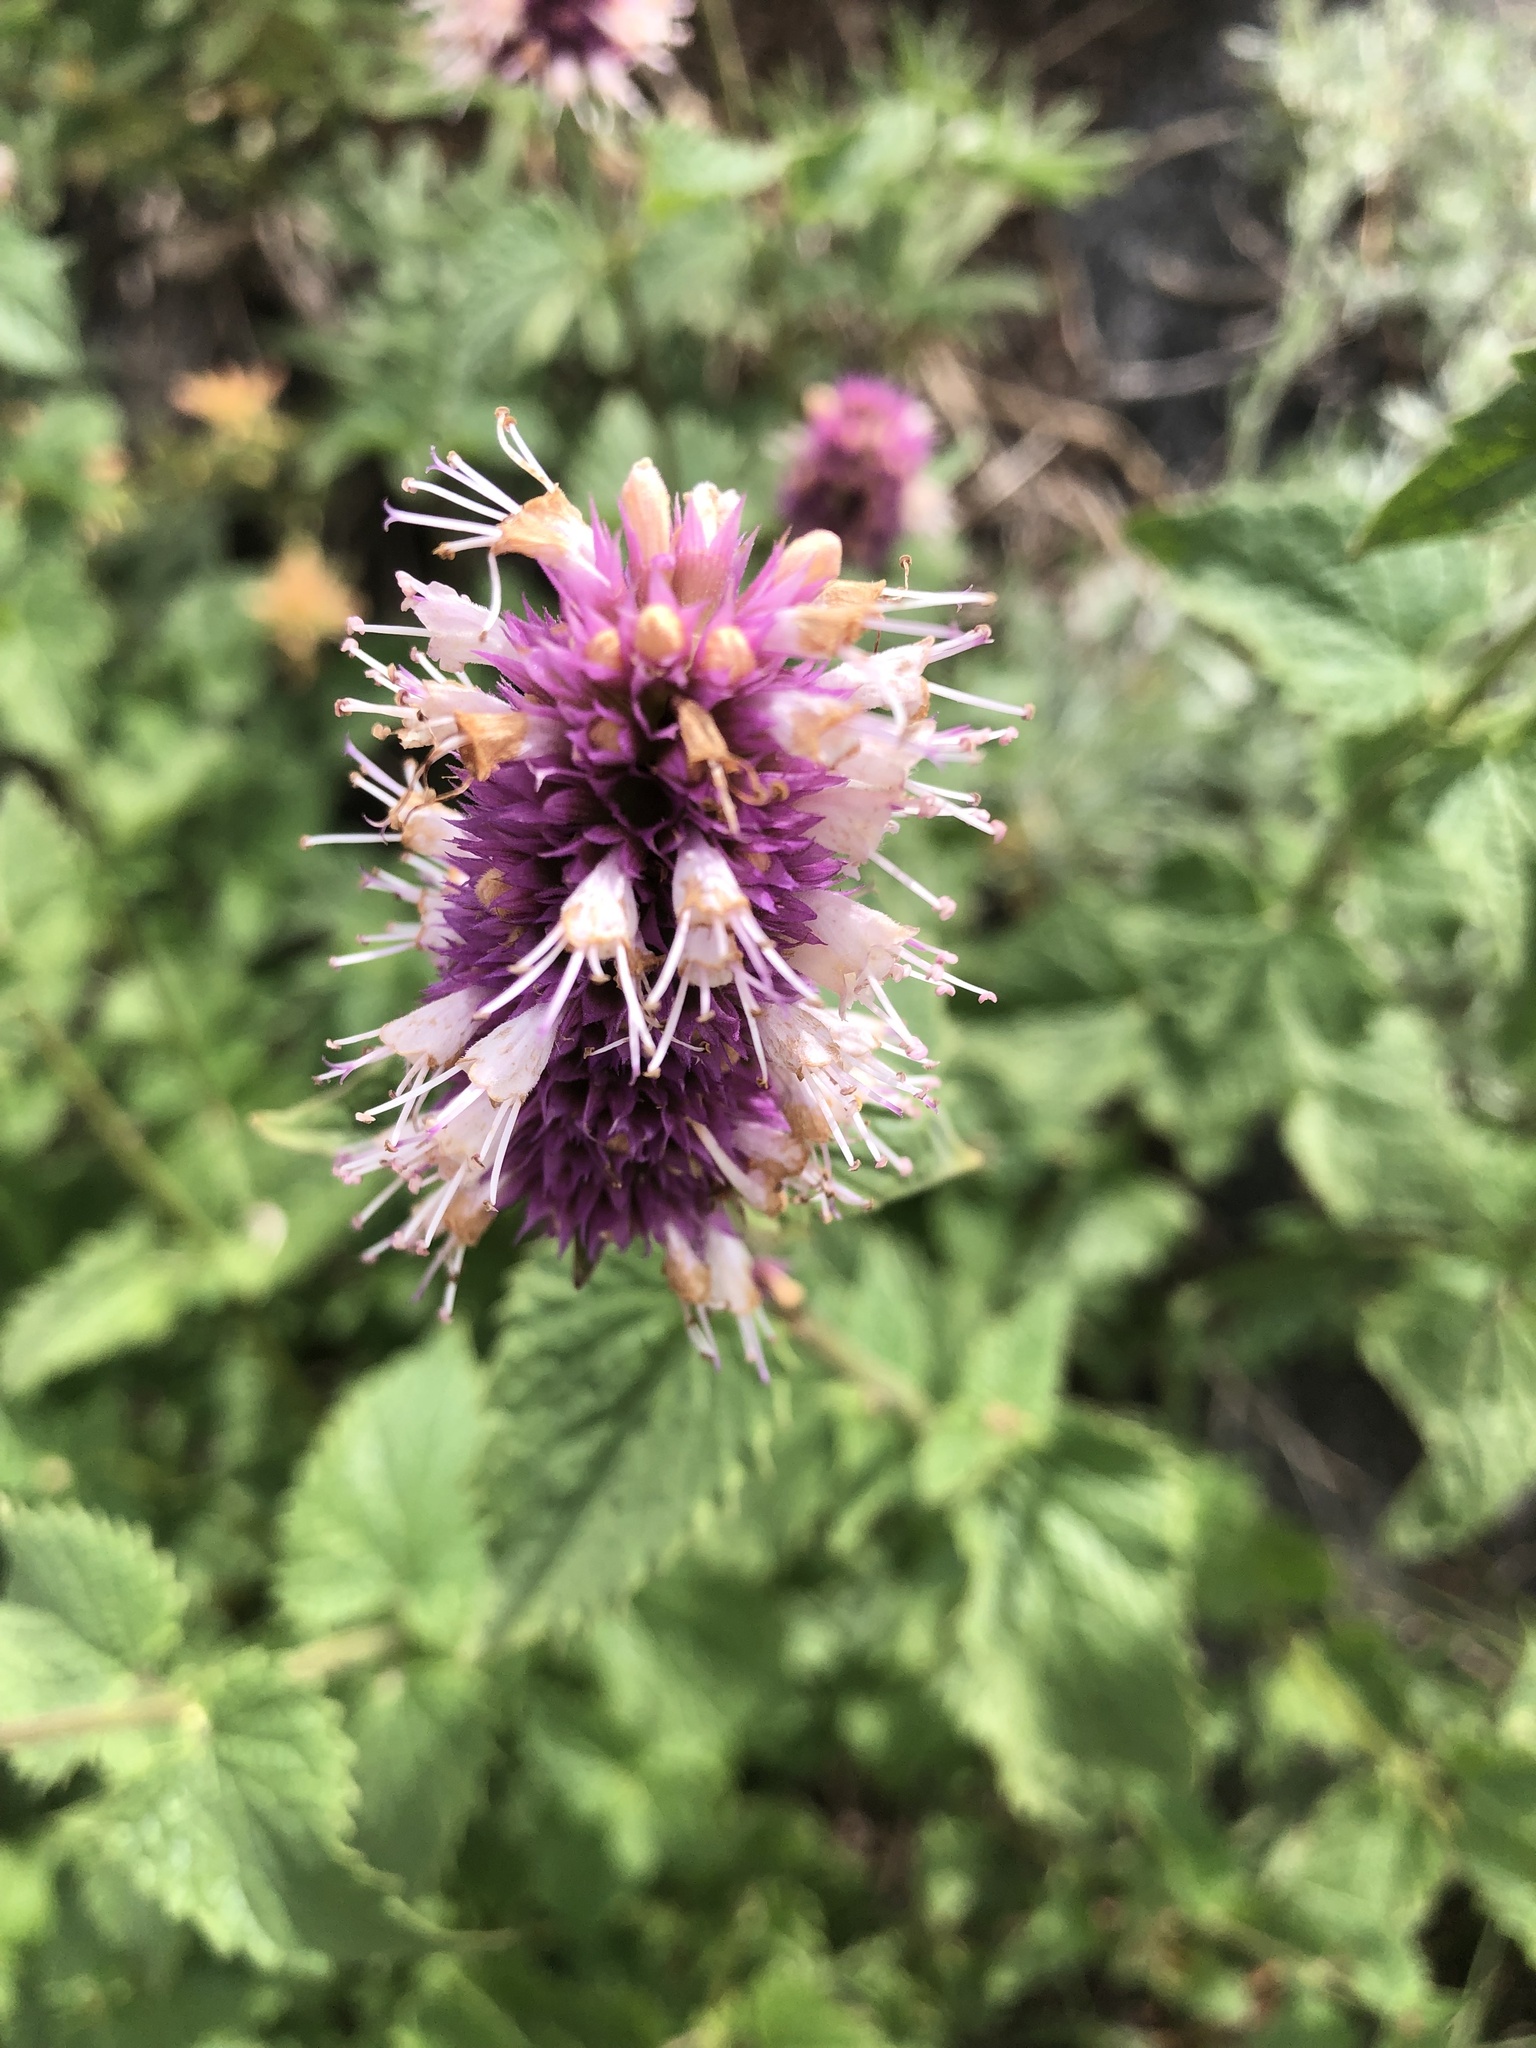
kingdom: Plantae
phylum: Tracheophyta
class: Magnoliopsida
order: Lamiales
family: Lamiaceae
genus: Agastache
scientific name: Agastache urticifolia
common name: Horsemint giant hyssop
